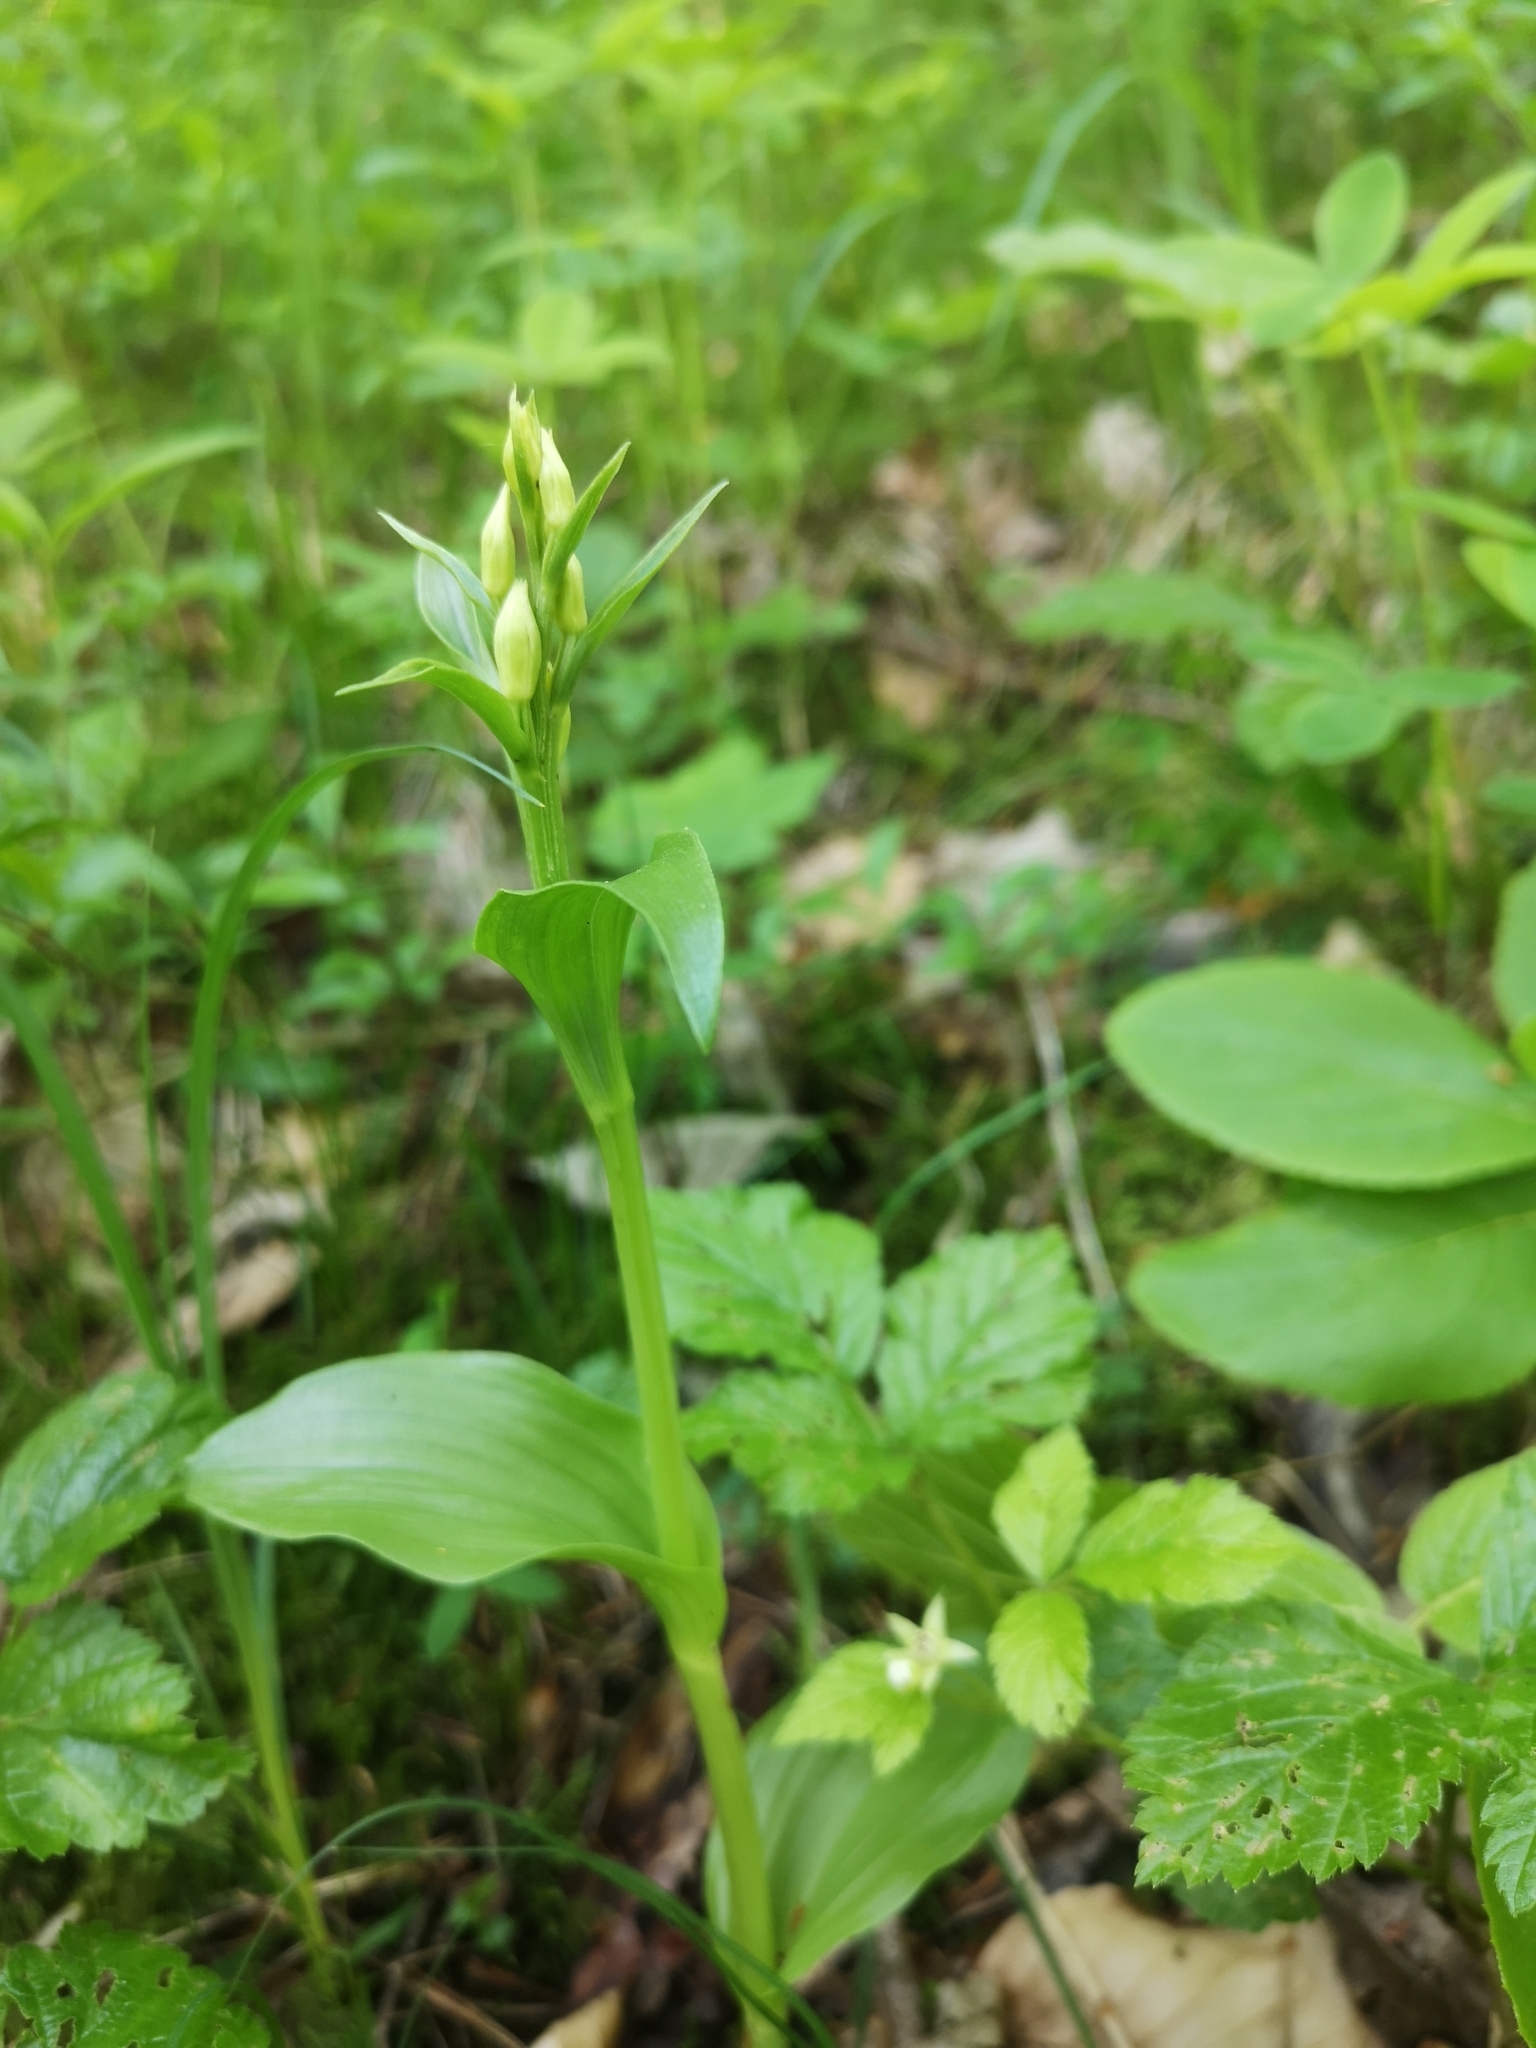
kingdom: Plantae
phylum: Tracheophyta
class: Liliopsida
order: Asparagales
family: Orchidaceae
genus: Cephalanthera
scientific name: Cephalanthera damasonium
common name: White helleborine
